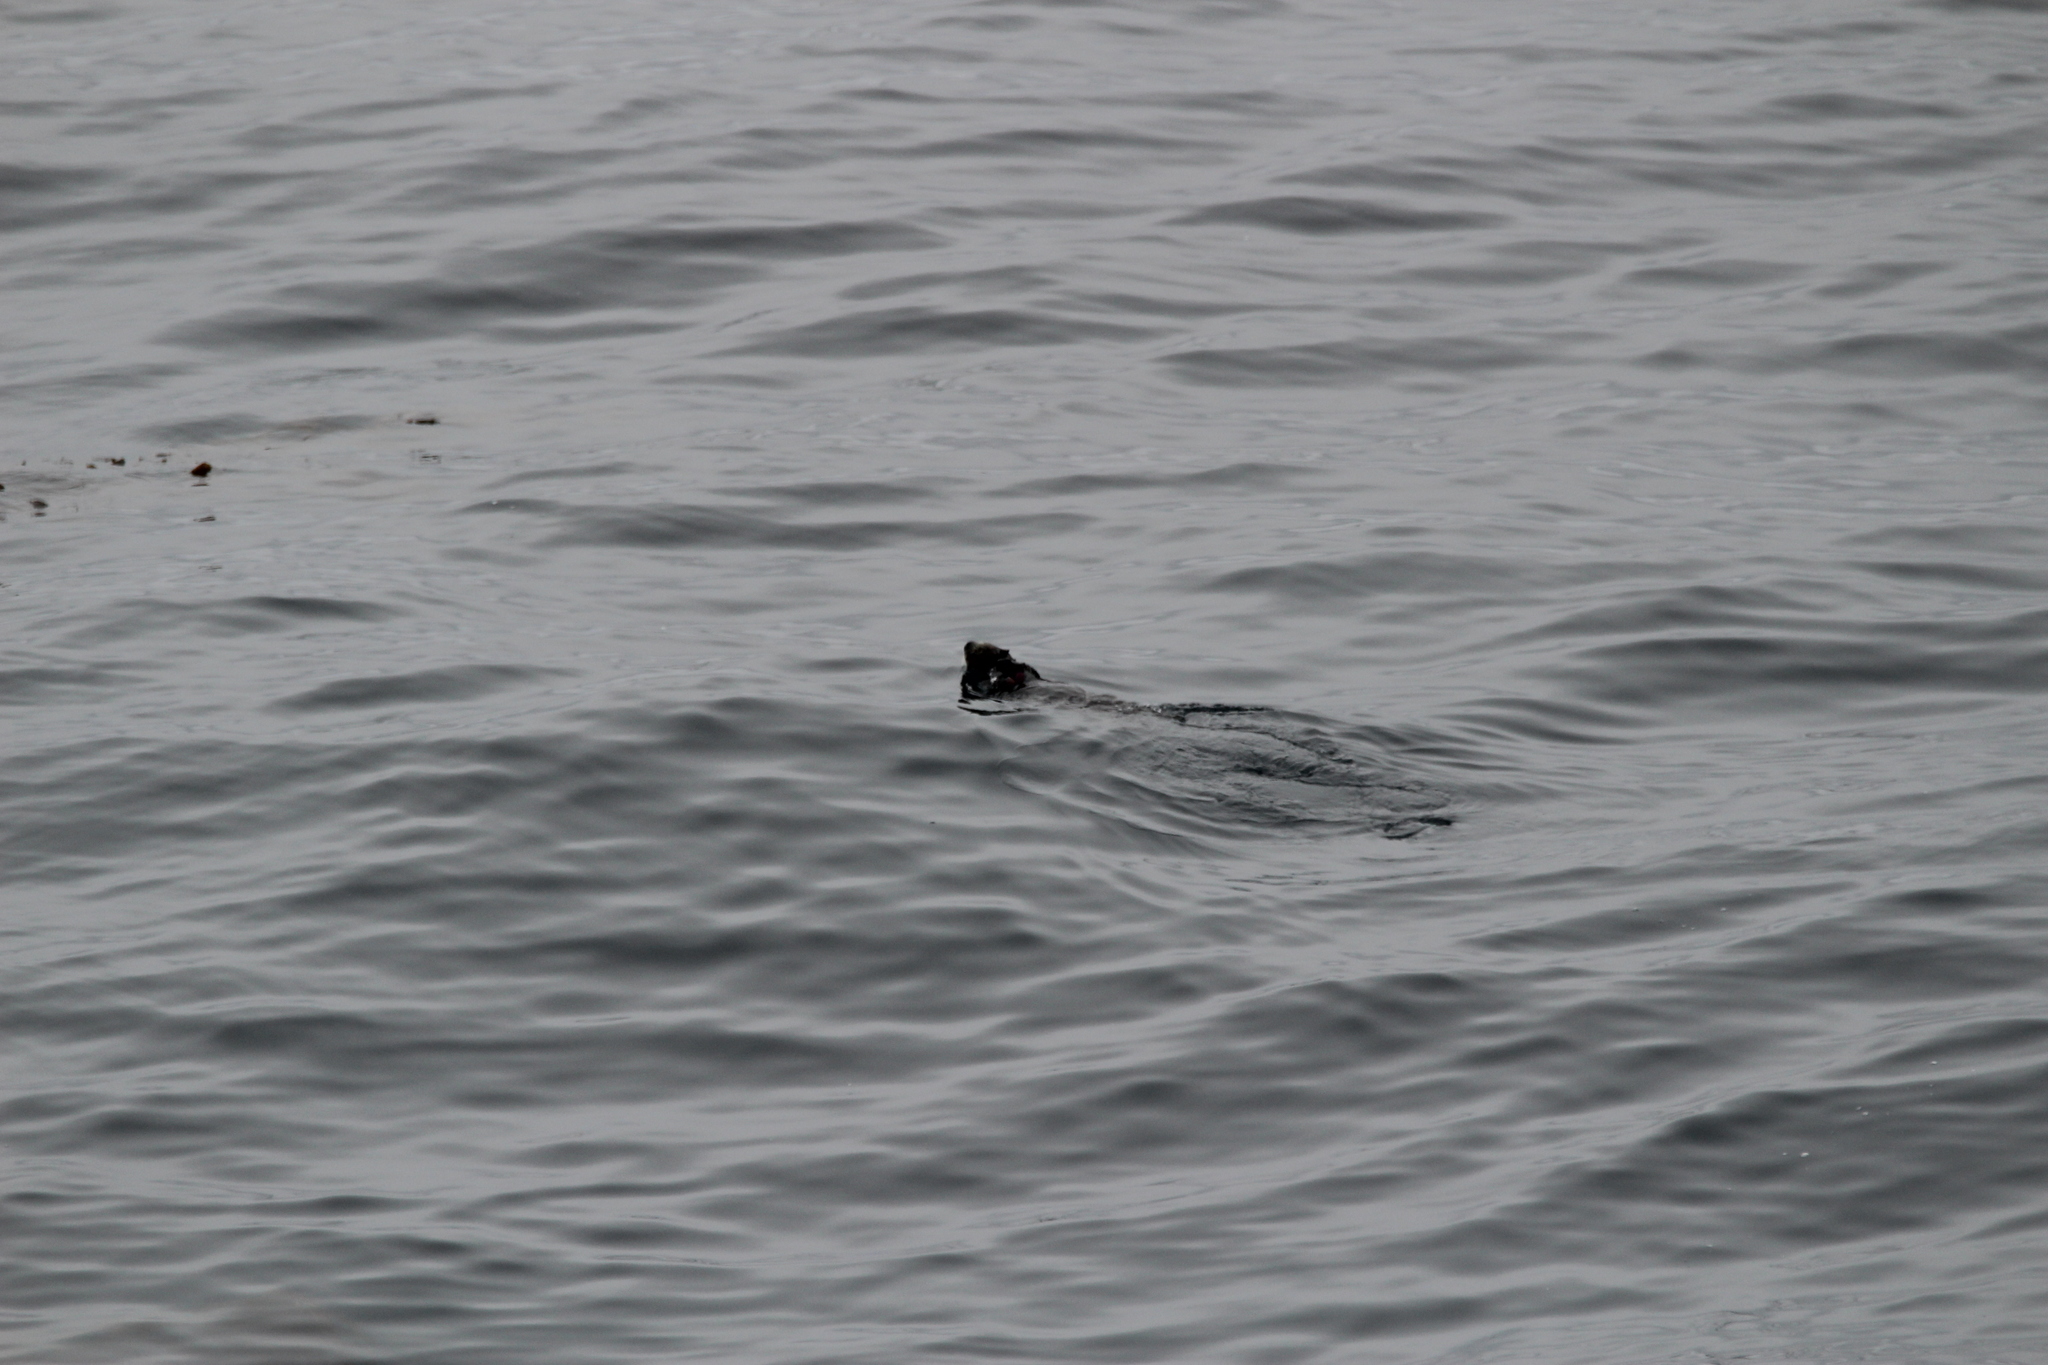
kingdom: Animalia
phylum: Chordata
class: Mammalia
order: Carnivora
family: Mustelidae
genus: Enhydra
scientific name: Enhydra lutris
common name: Sea otter
